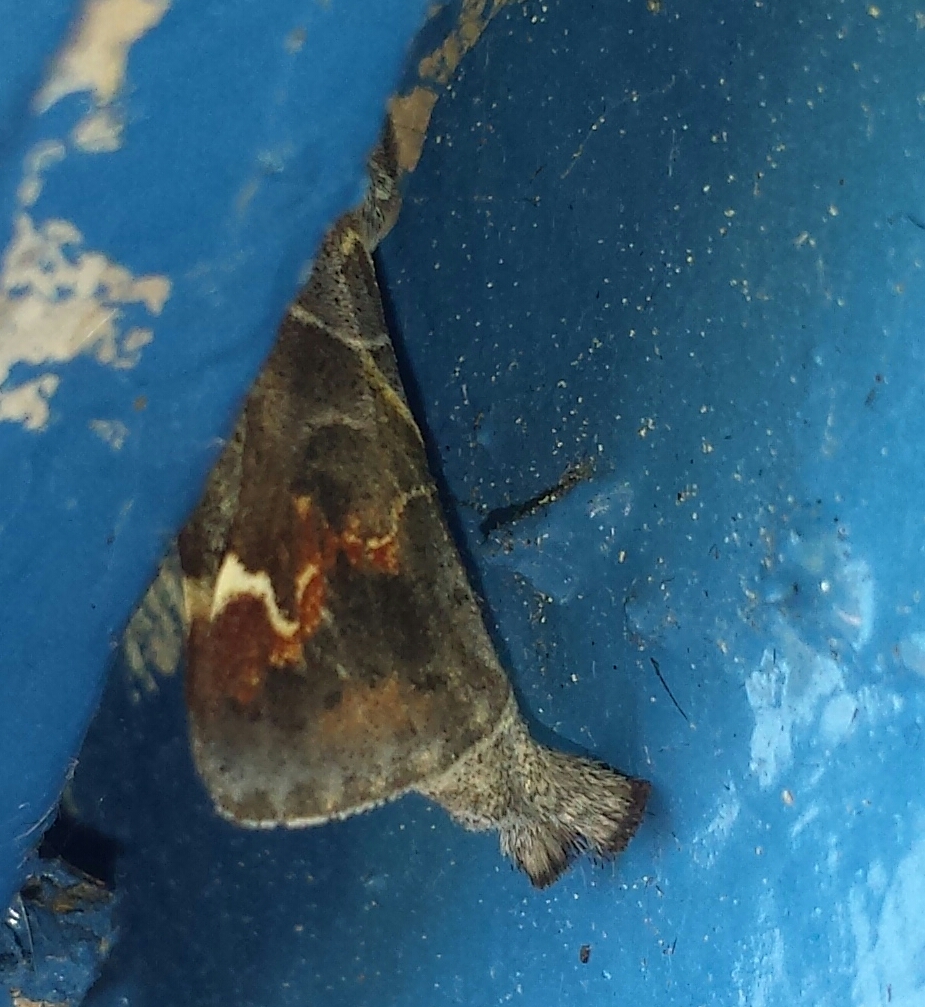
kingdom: Animalia
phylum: Arthropoda
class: Insecta
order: Lepidoptera
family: Notodontidae
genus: Clostera
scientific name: Clostera apicalis
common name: Apical prominent
